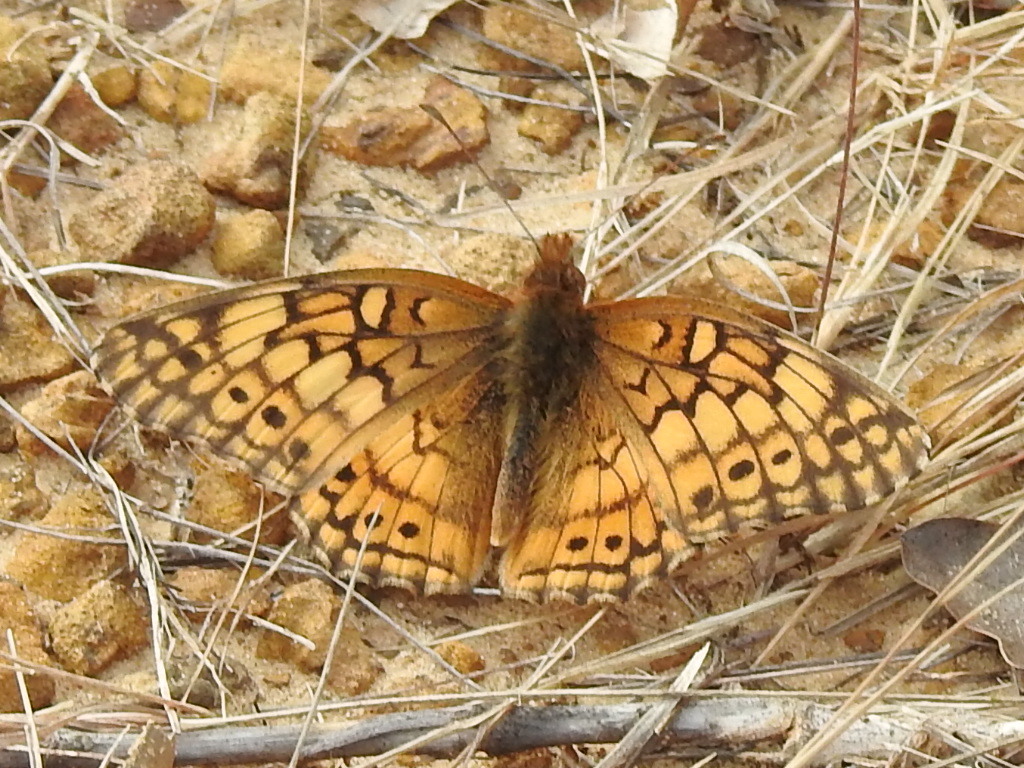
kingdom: Animalia
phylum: Arthropoda
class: Insecta
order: Lepidoptera
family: Nymphalidae
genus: Euptoieta
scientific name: Euptoieta claudia
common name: Variegated fritillary
